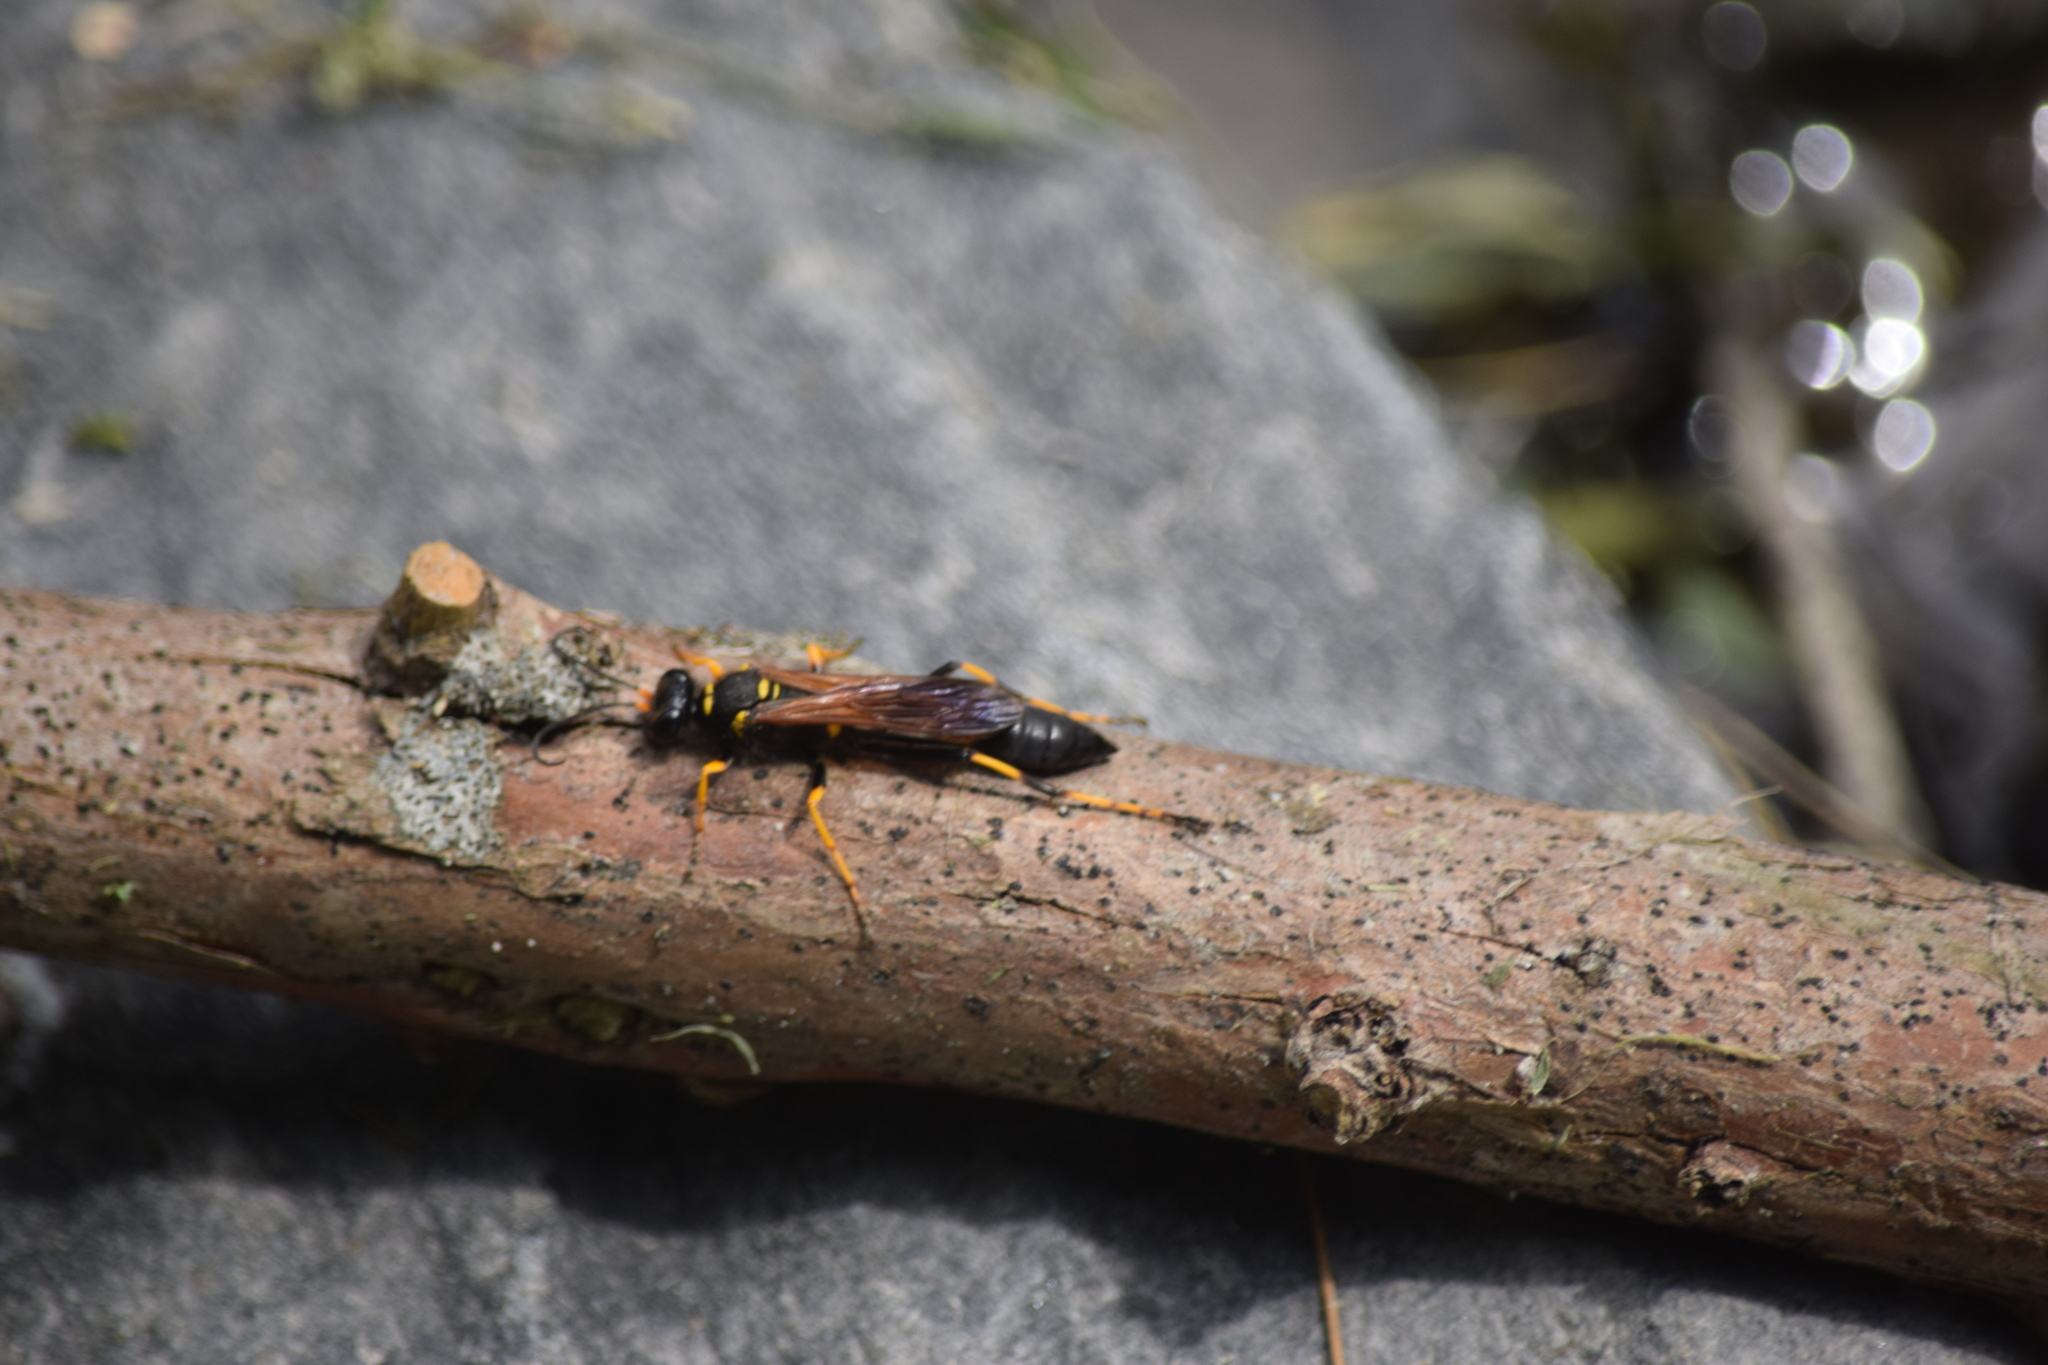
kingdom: Animalia
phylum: Arthropoda
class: Insecta
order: Hymenoptera
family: Sphecidae
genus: Sceliphron
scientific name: Sceliphron caementarium
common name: Mud dauber
